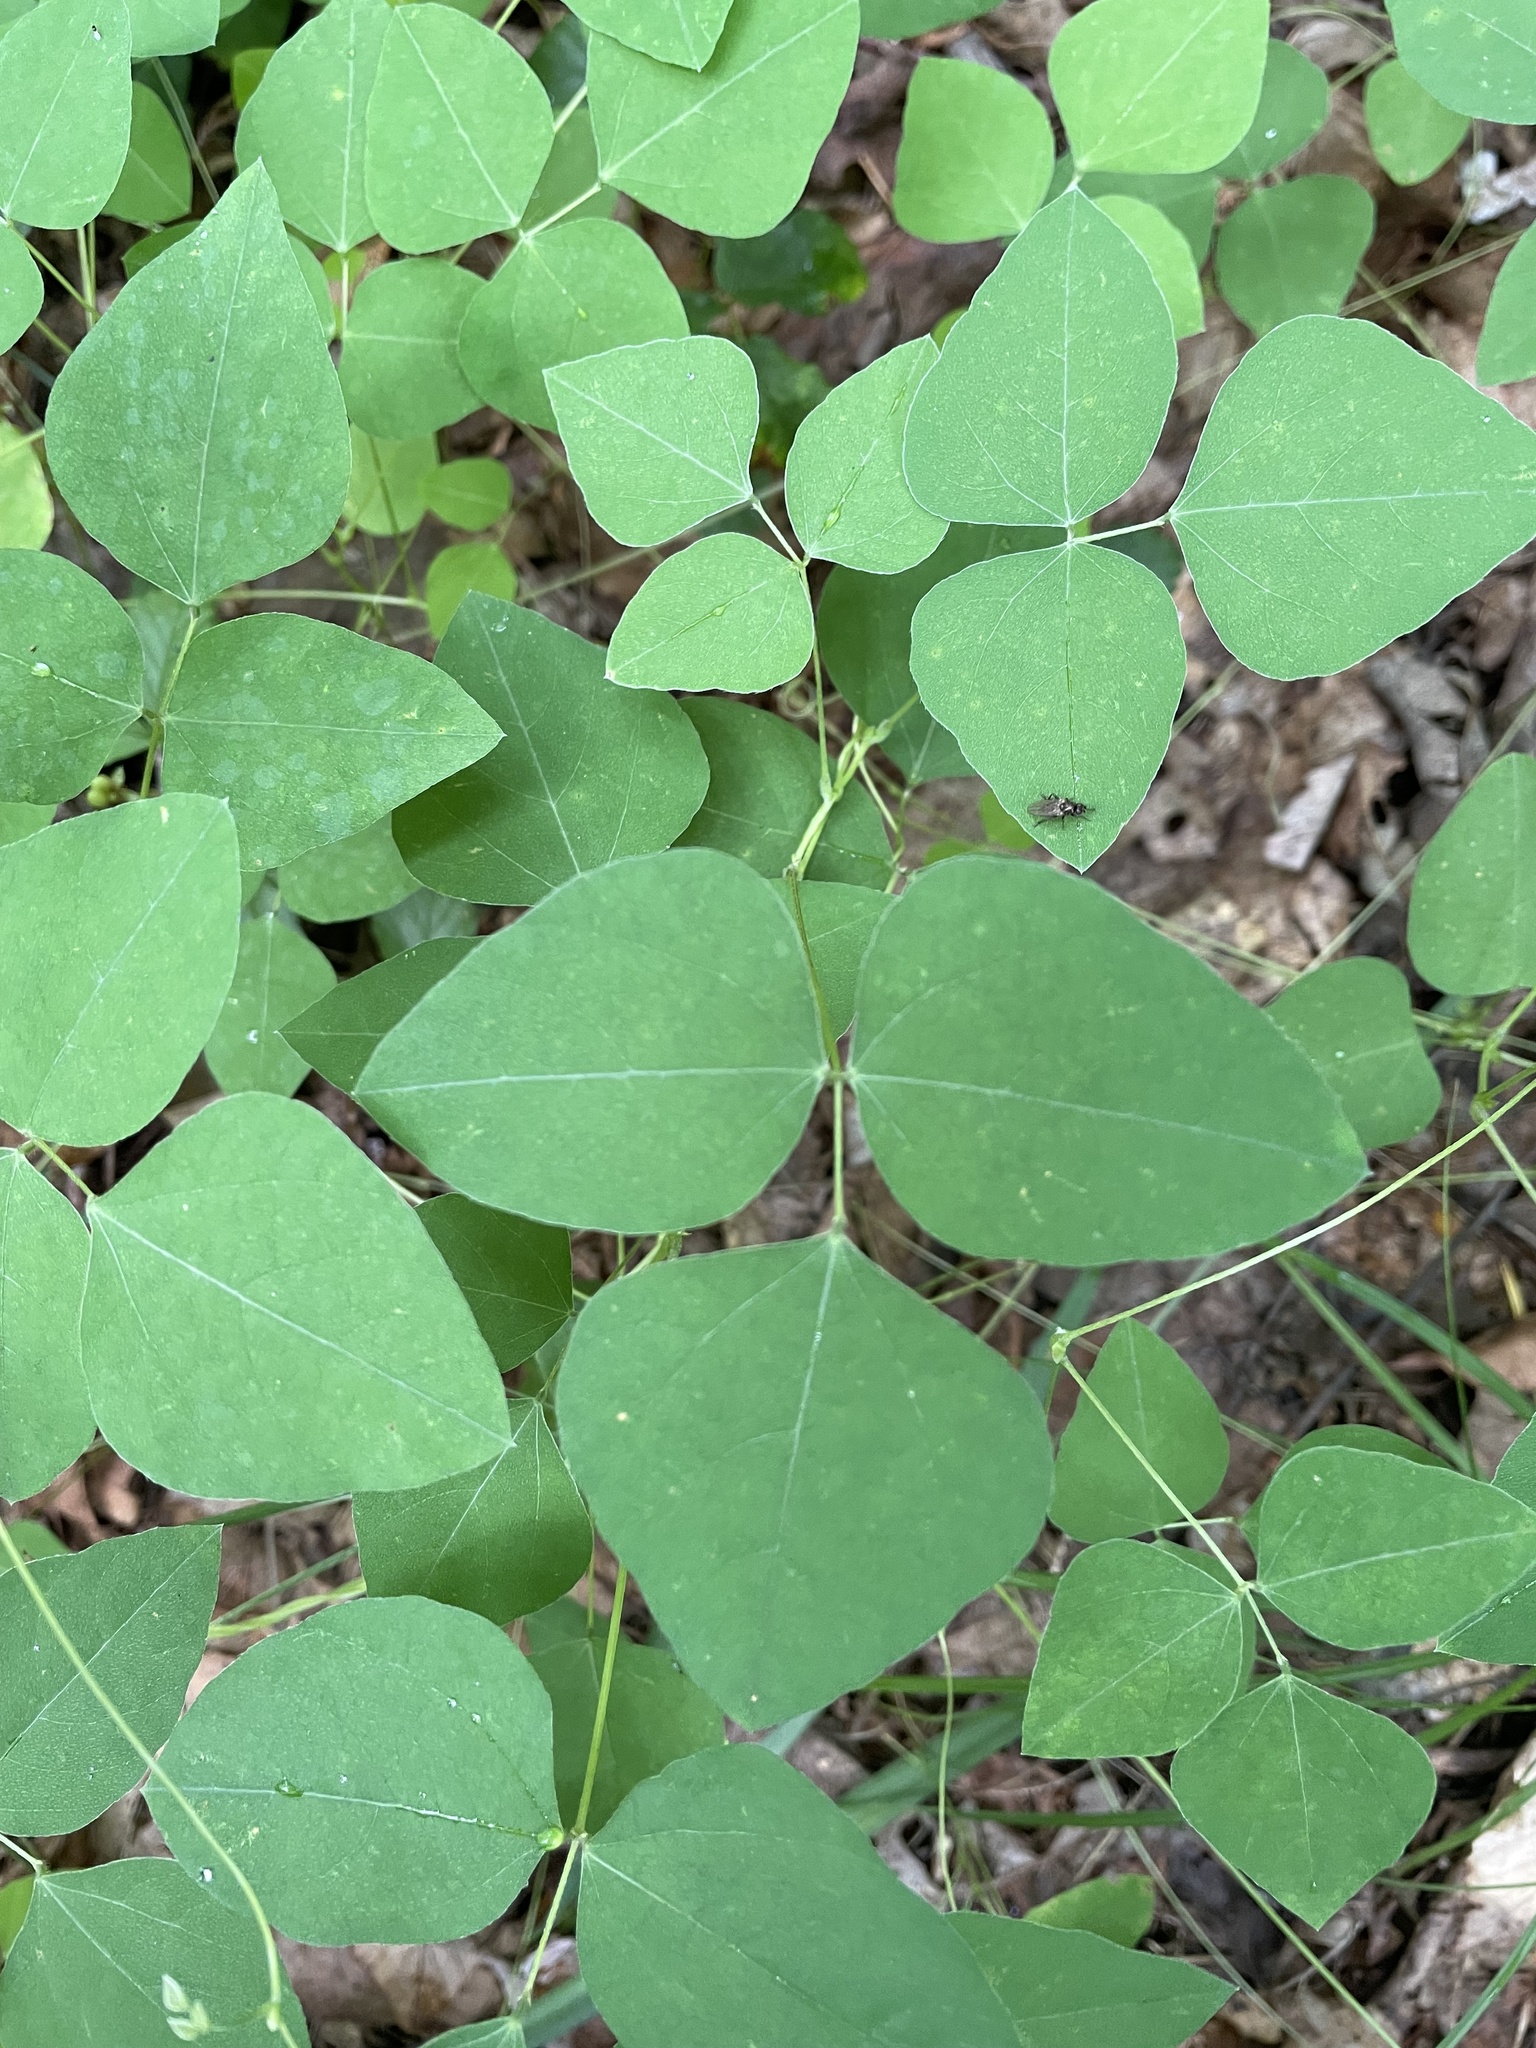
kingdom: Plantae
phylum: Tracheophyta
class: Magnoliopsida
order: Fabales
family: Fabaceae
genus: Amphicarpaea
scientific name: Amphicarpaea bracteata
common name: American hog peanut
